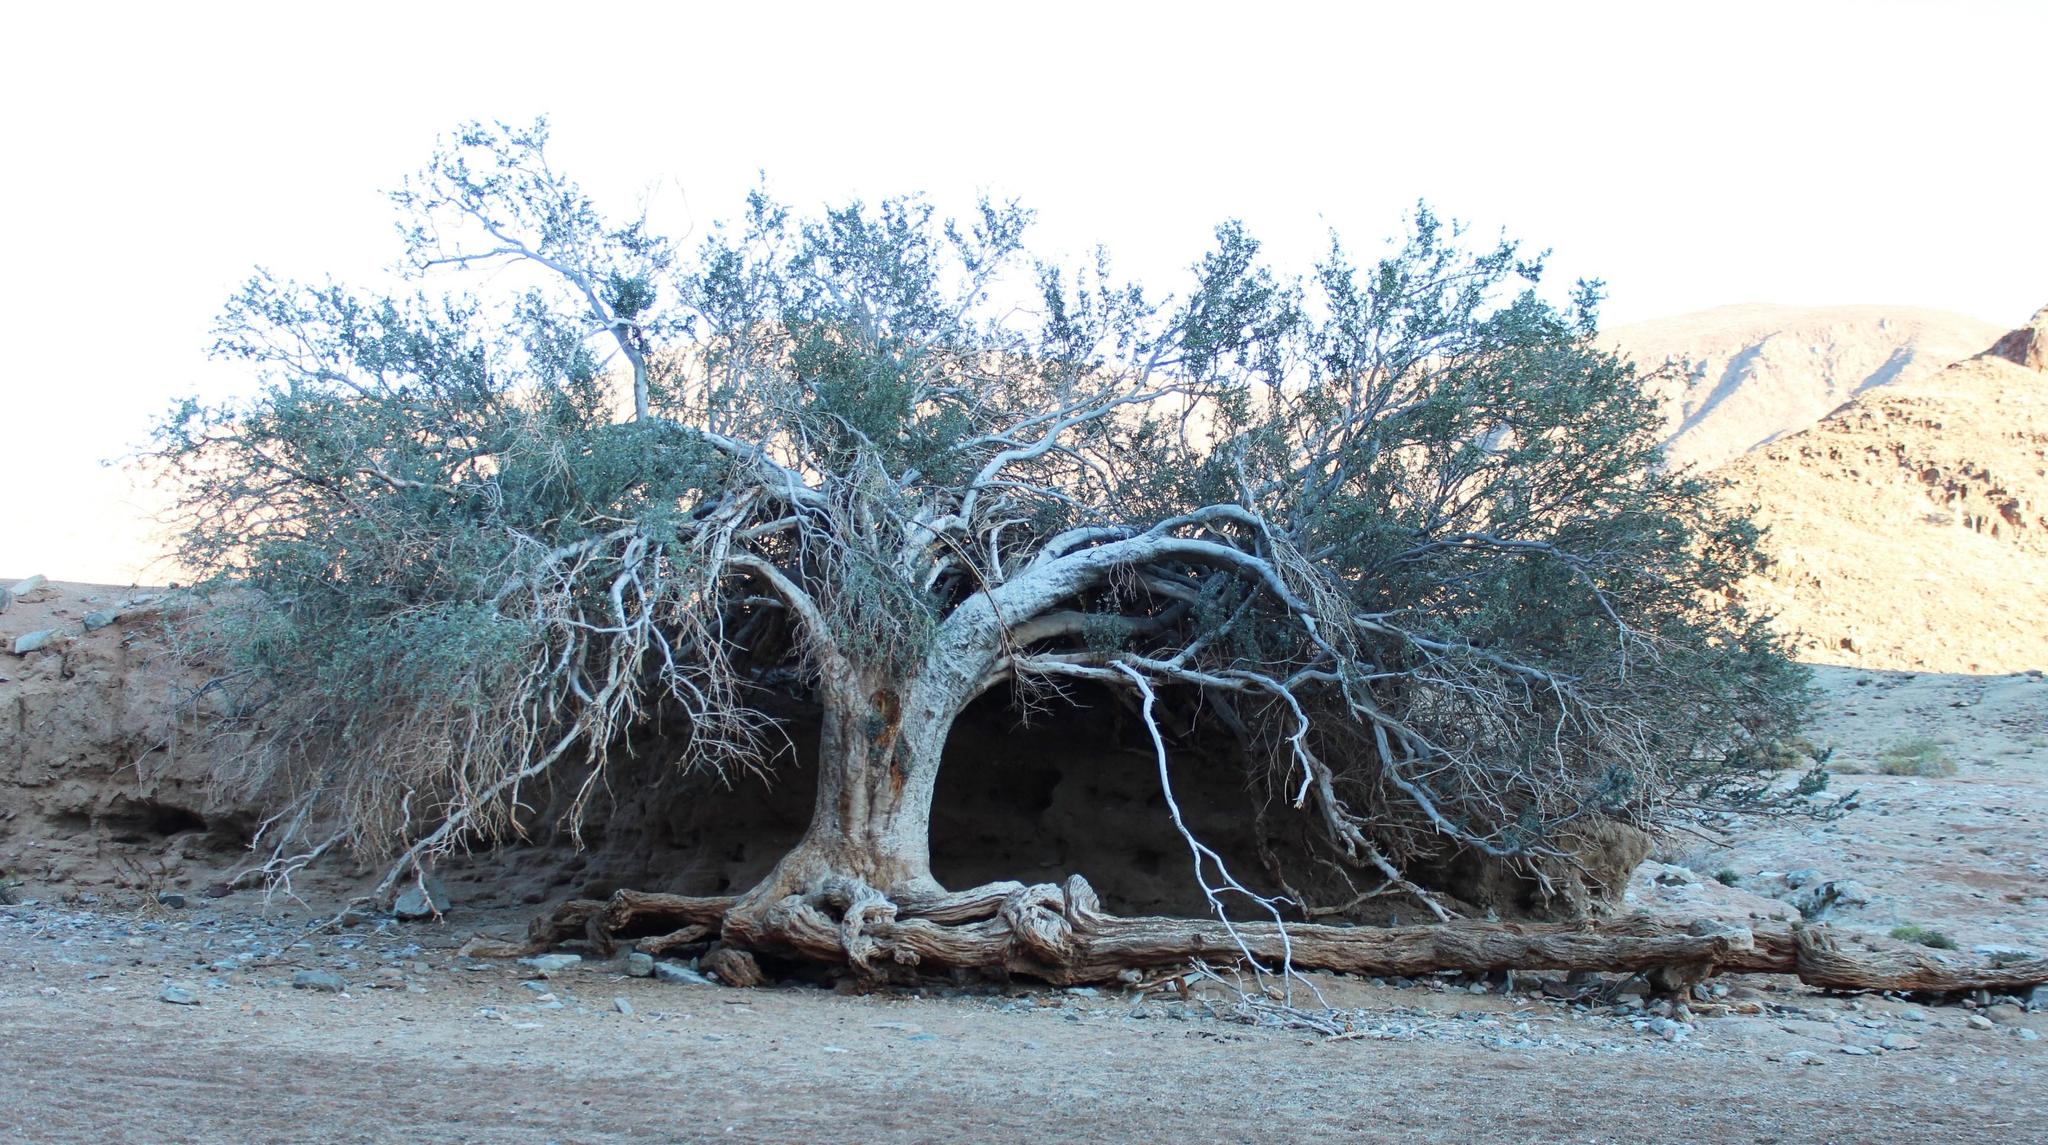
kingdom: Plantae
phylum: Tracheophyta
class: Magnoliopsida
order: Brassicales
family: Capparaceae
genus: Boscia
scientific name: Boscia albitrunca
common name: Caper bush
